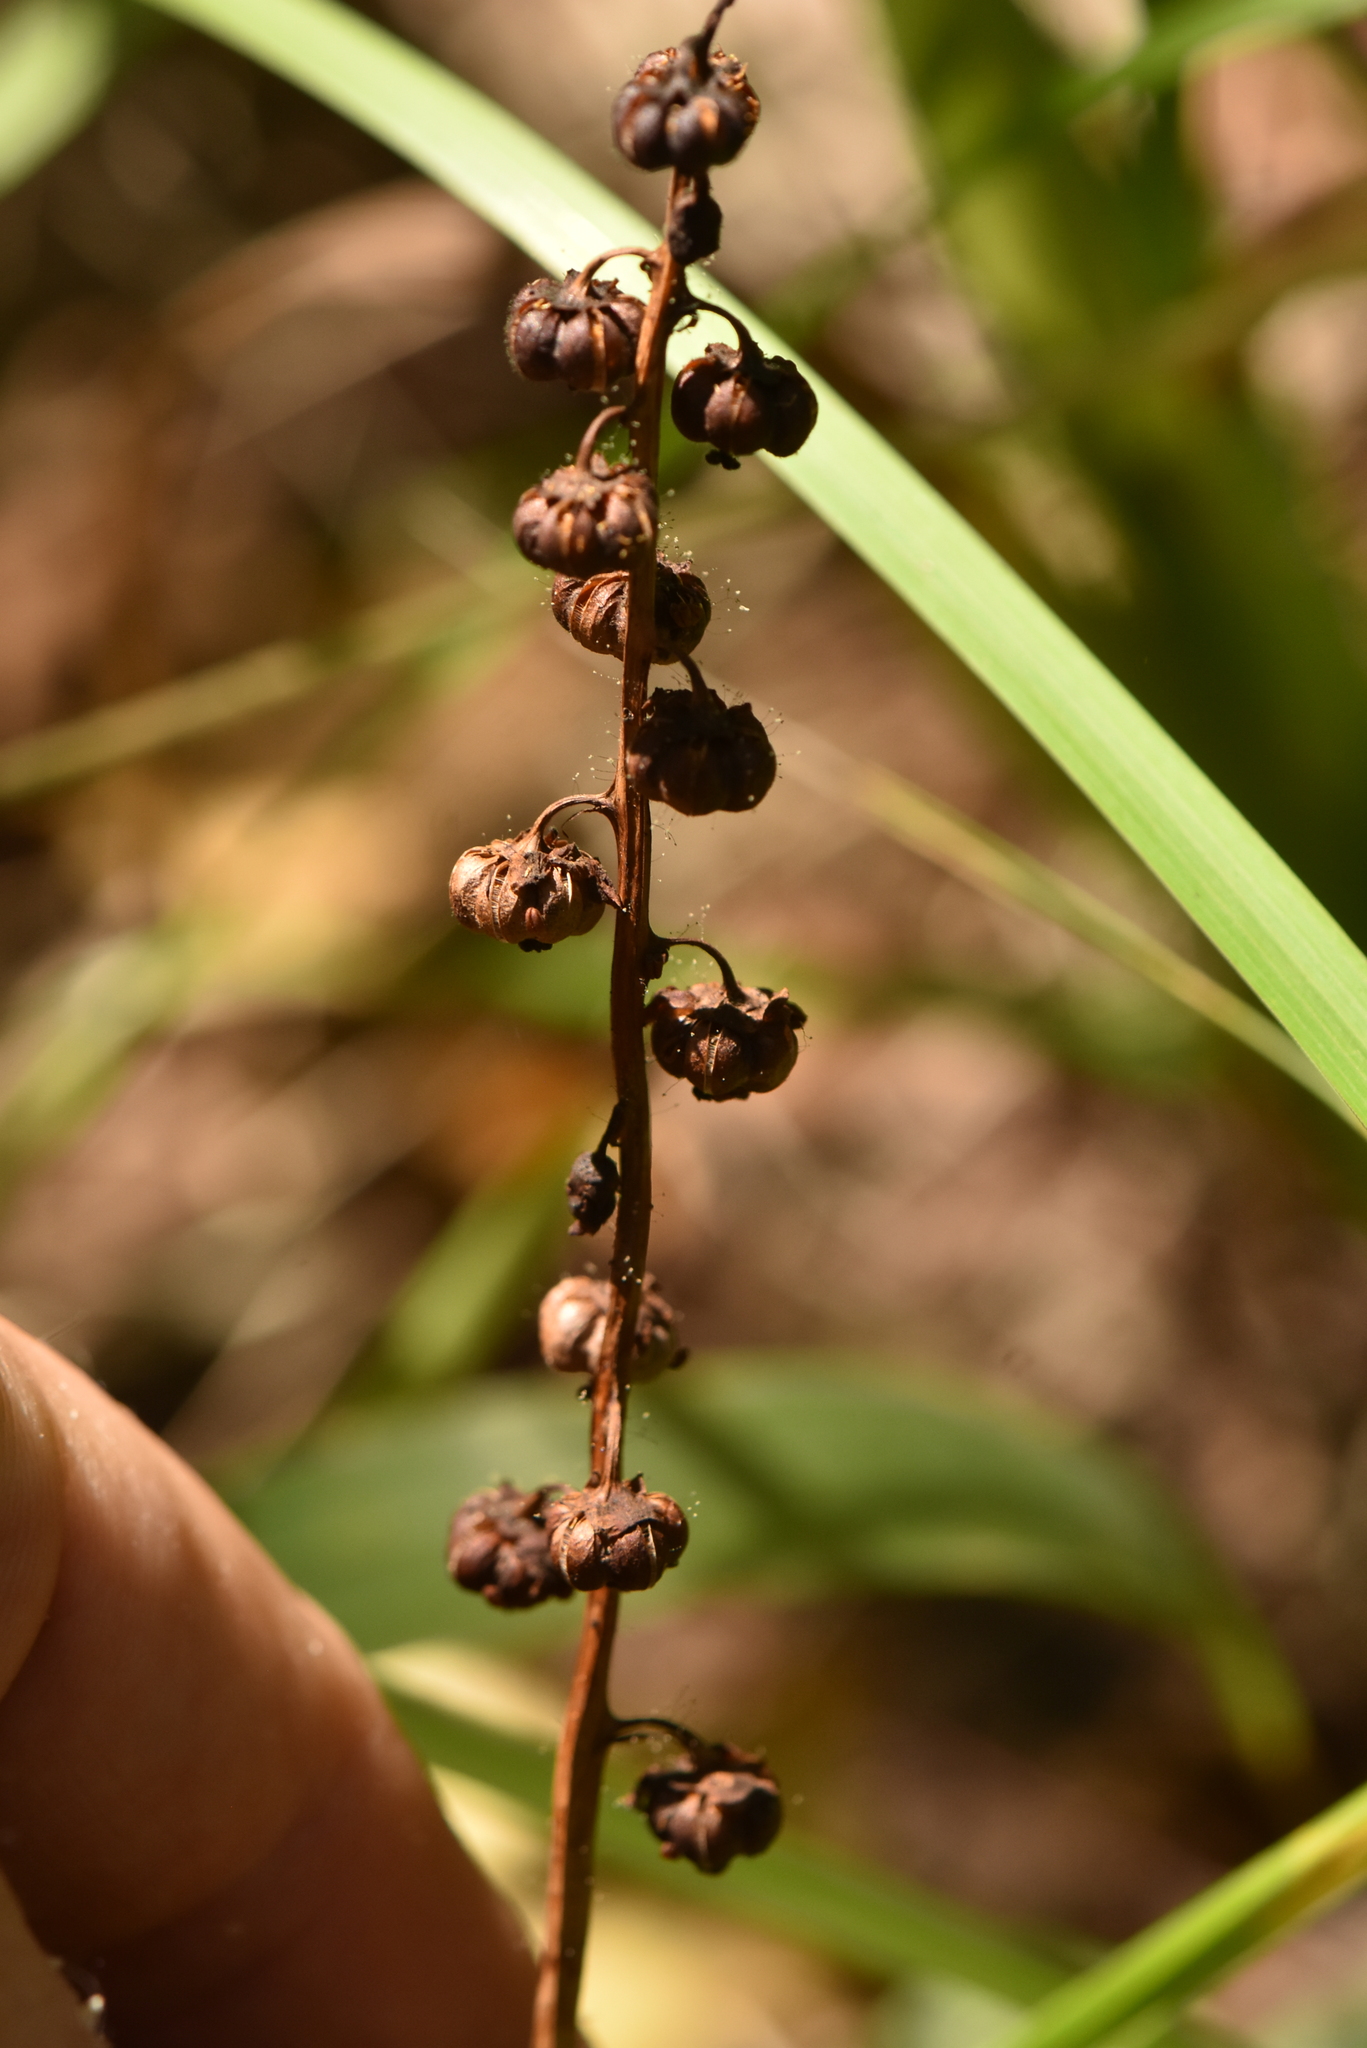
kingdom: Plantae
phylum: Tracheophyta
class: Magnoliopsida
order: Ericales
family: Ericaceae
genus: Pyrola
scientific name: Pyrola minor
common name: Common wintergreen
